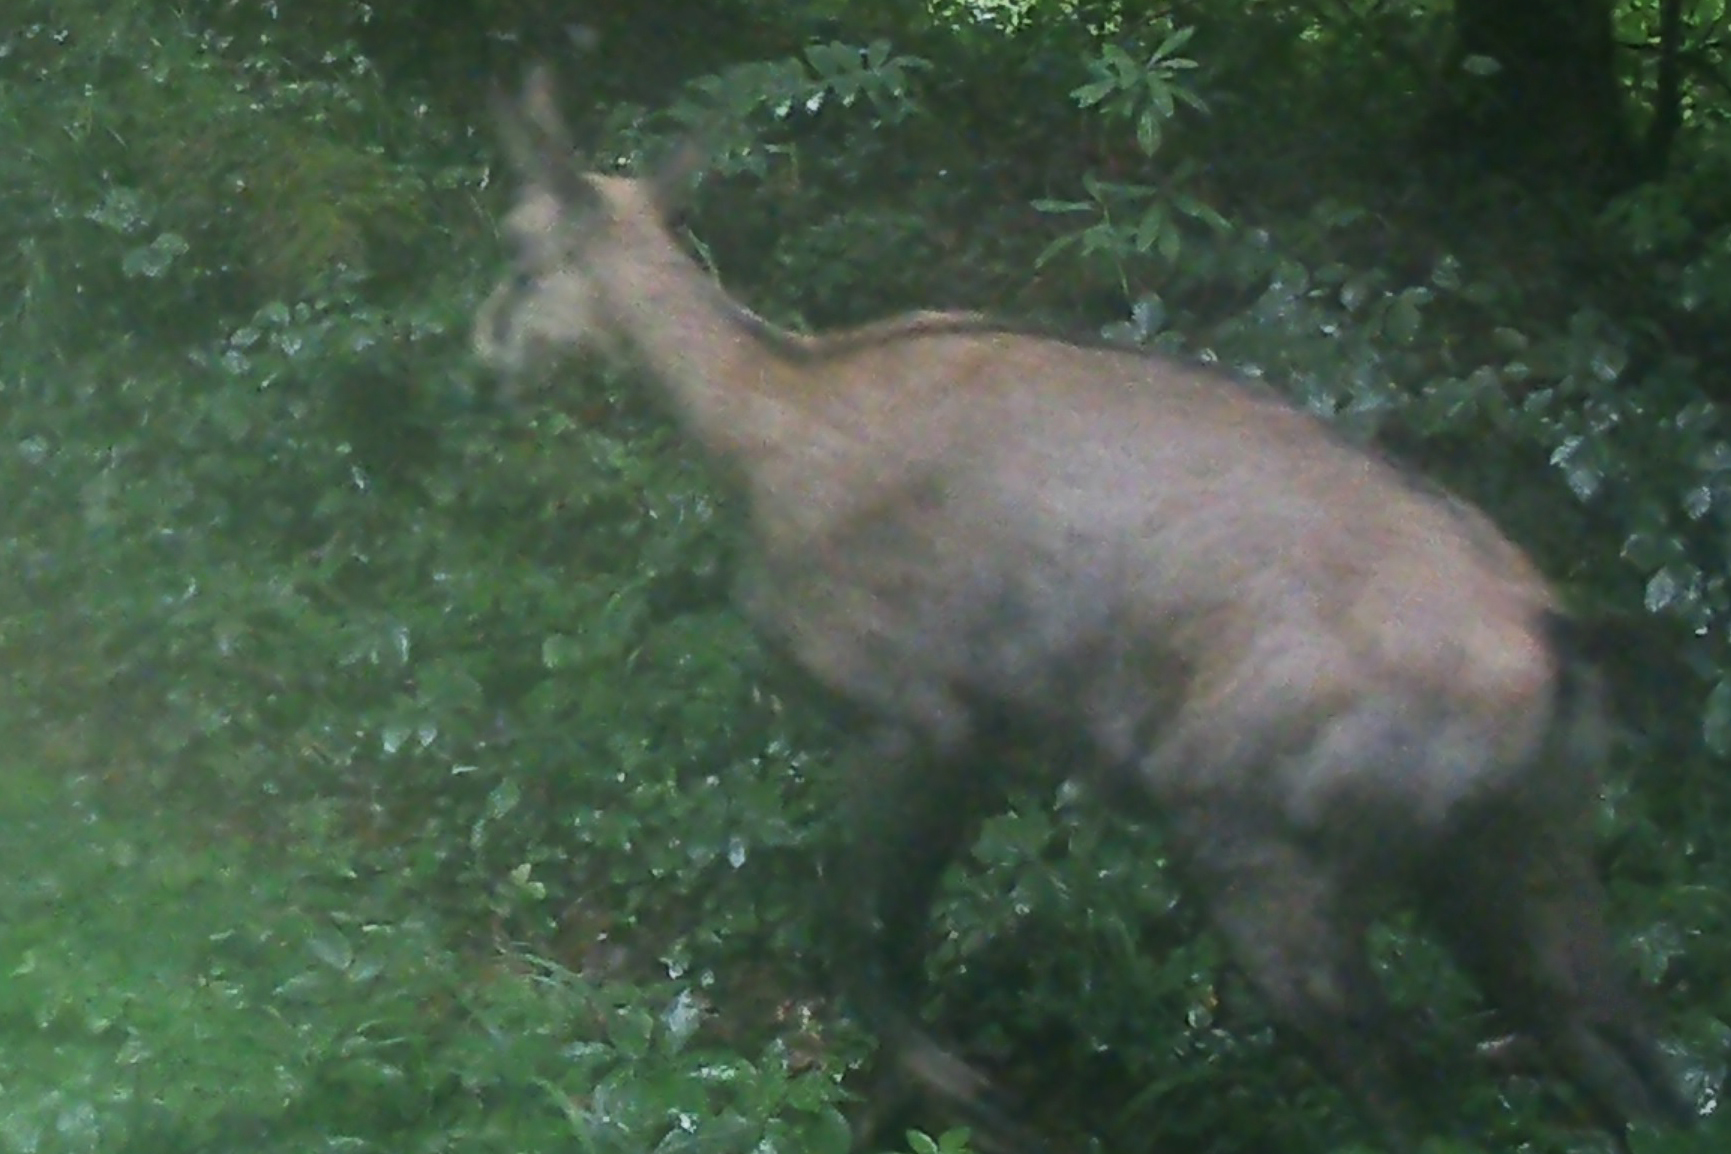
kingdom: Animalia
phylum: Chordata
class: Mammalia
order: Artiodactyla
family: Bovidae
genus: Rupicapra
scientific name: Rupicapra rupicapra
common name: Chamois
